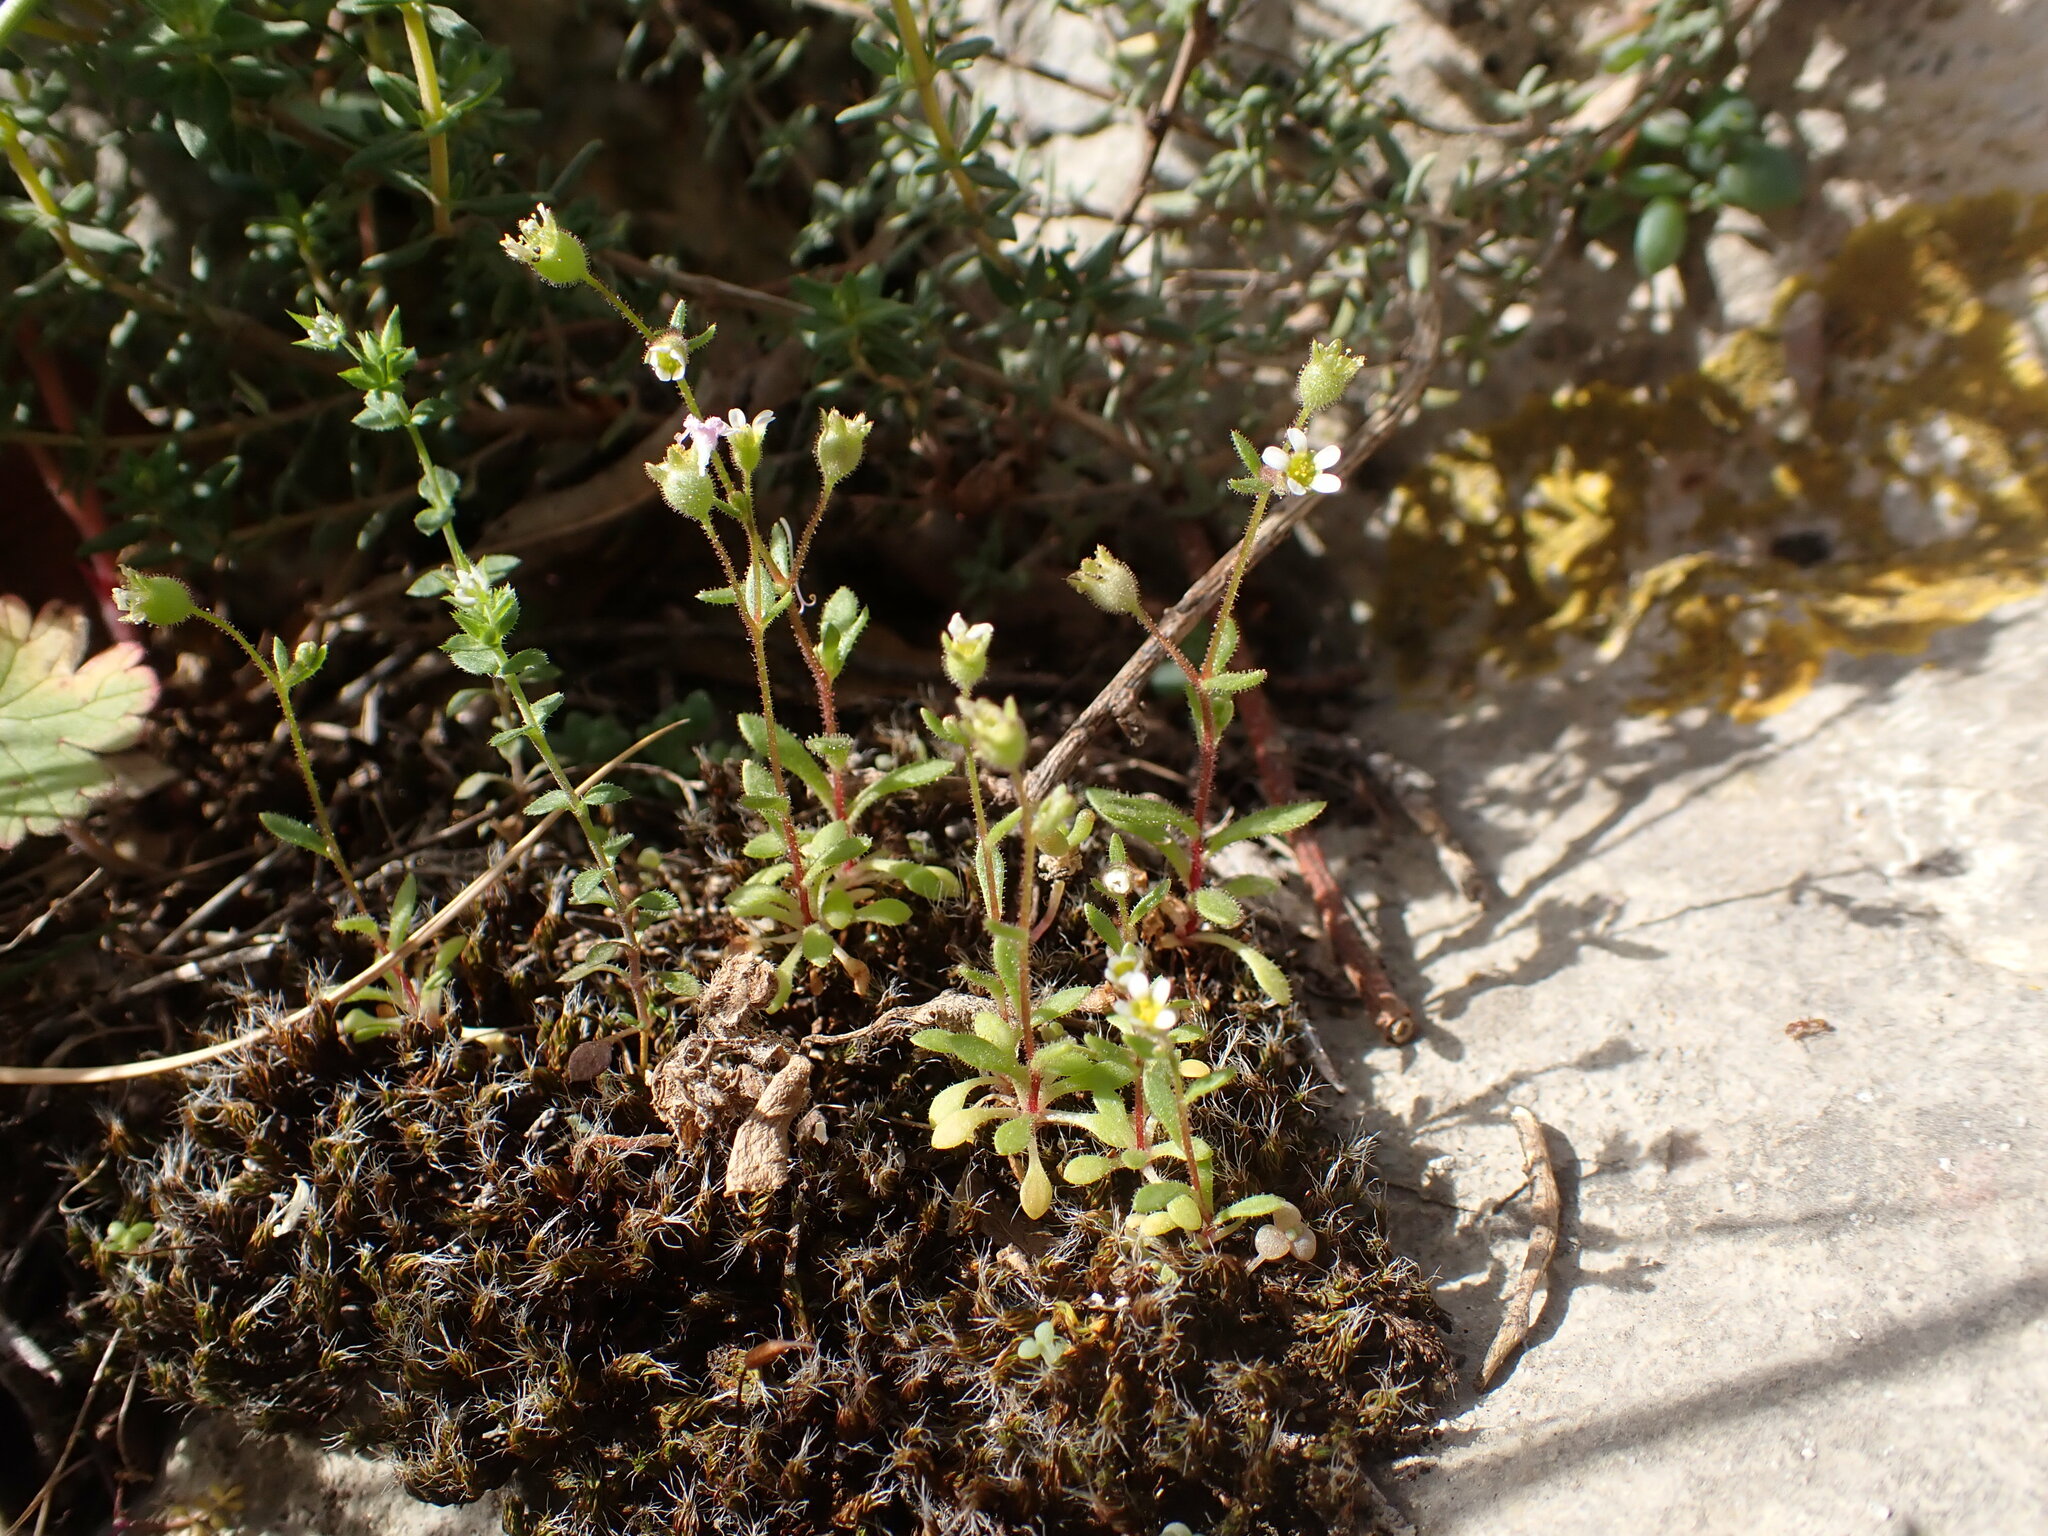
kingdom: Plantae
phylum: Tracheophyta
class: Magnoliopsida
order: Saxifragales
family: Saxifragaceae
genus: Saxifraga
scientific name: Saxifraga tridactylites
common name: Rue-leaved saxifrage
